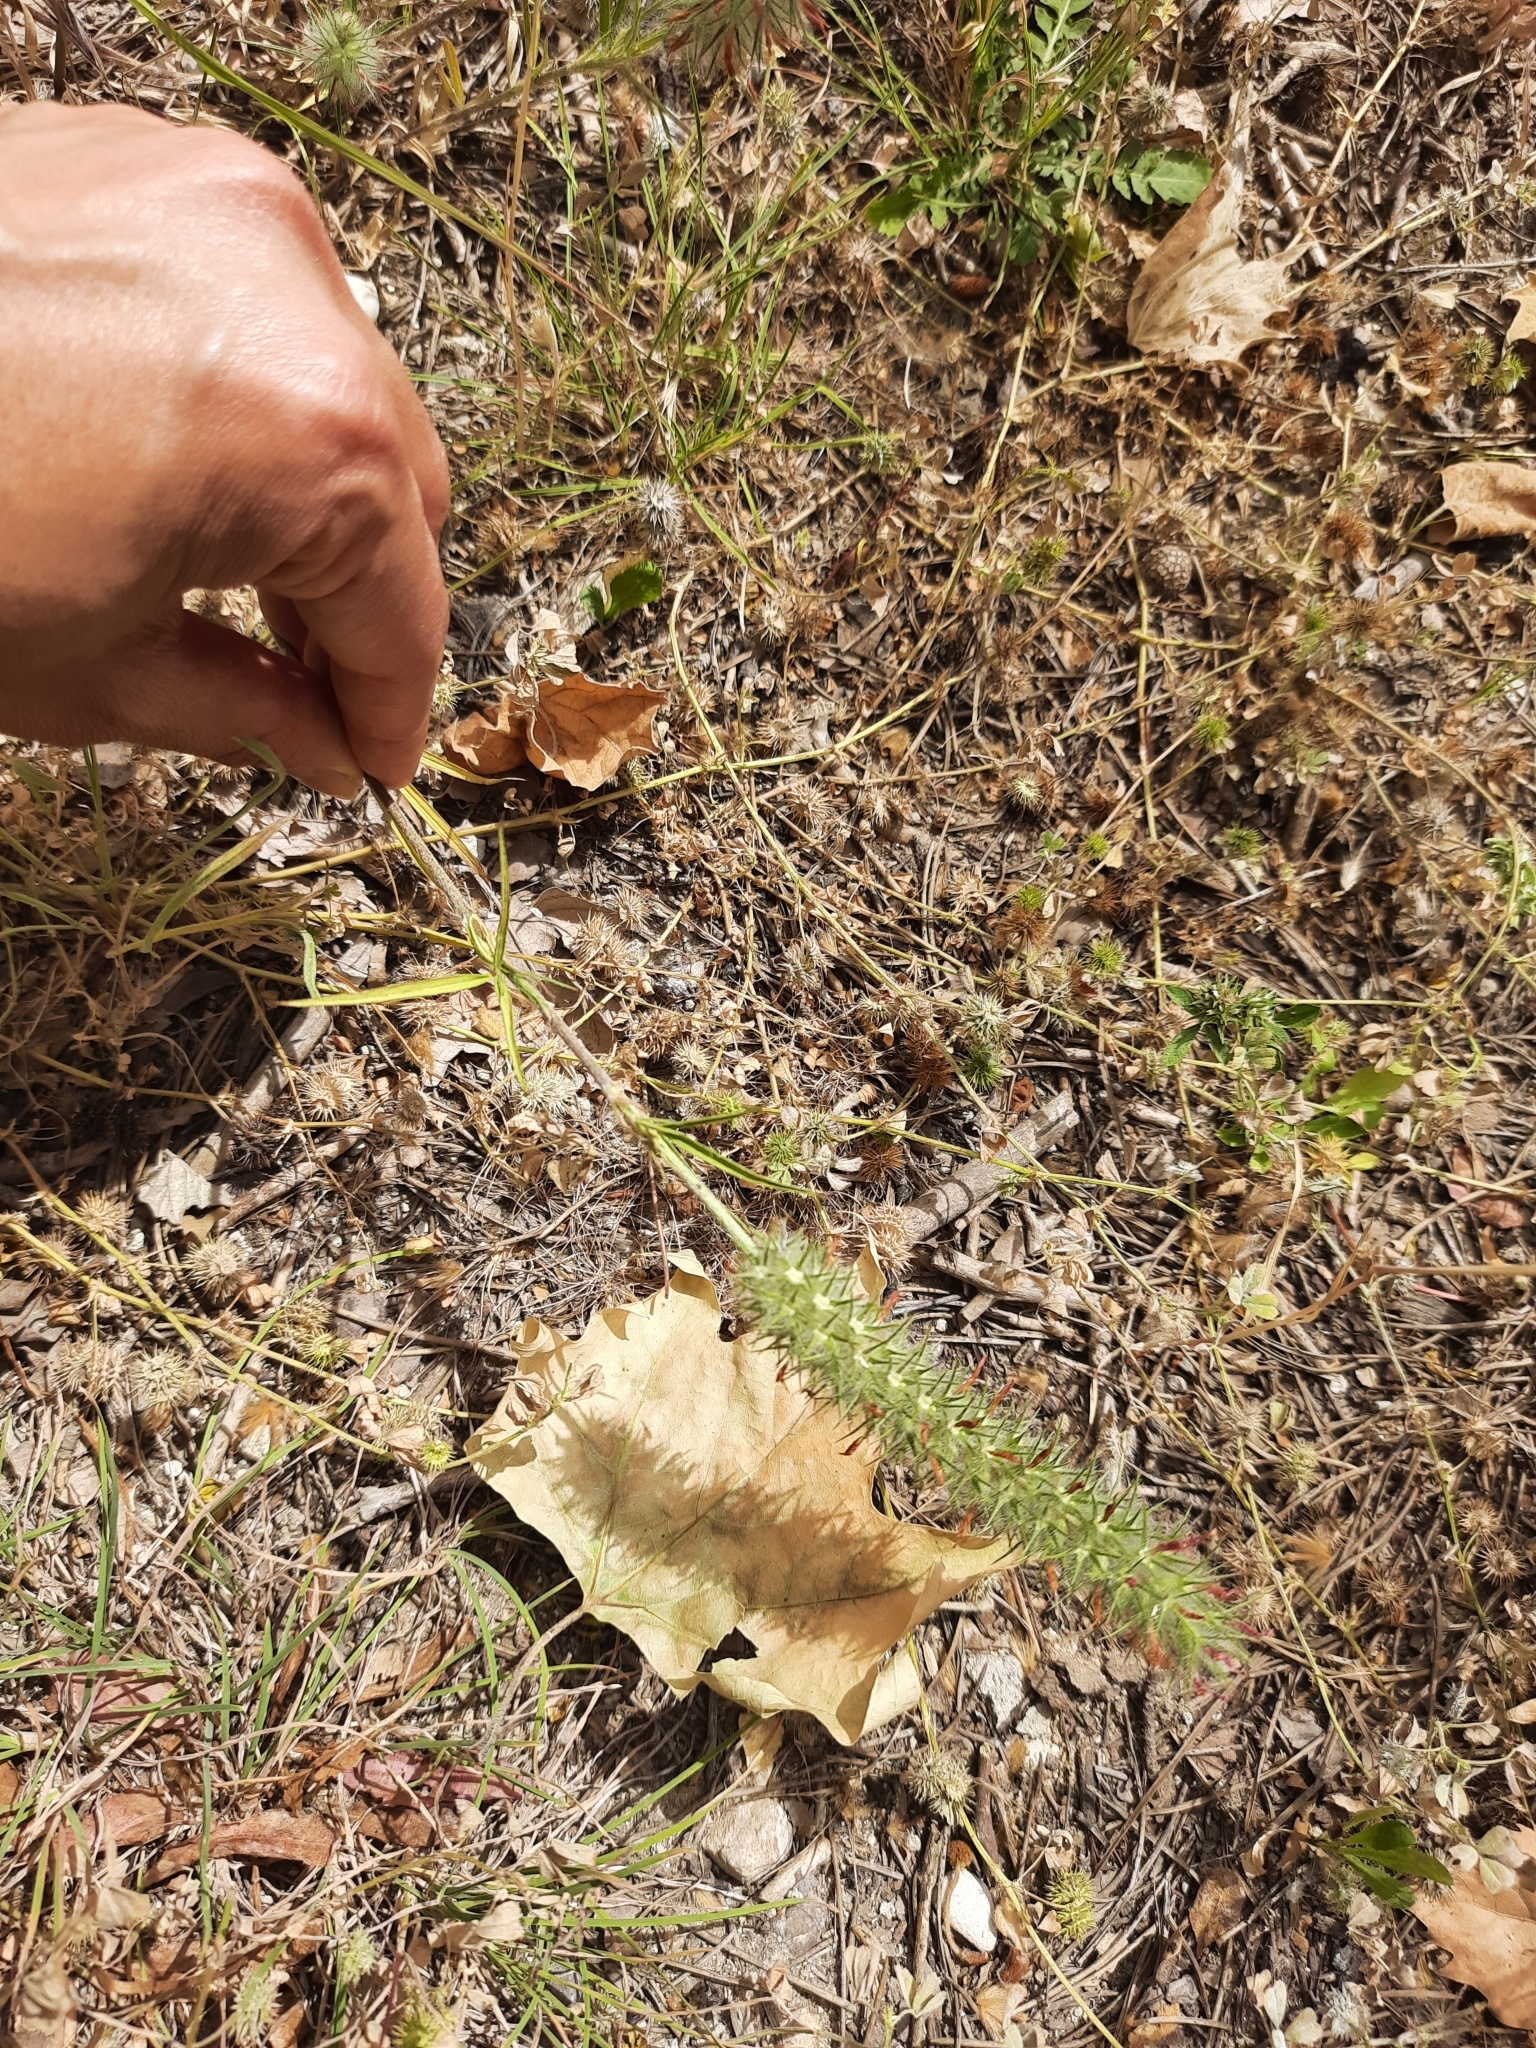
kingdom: Plantae
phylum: Tracheophyta
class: Magnoliopsida
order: Fabales
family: Fabaceae
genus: Trifolium
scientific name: Trifolium angustifolium
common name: Narrow clover
